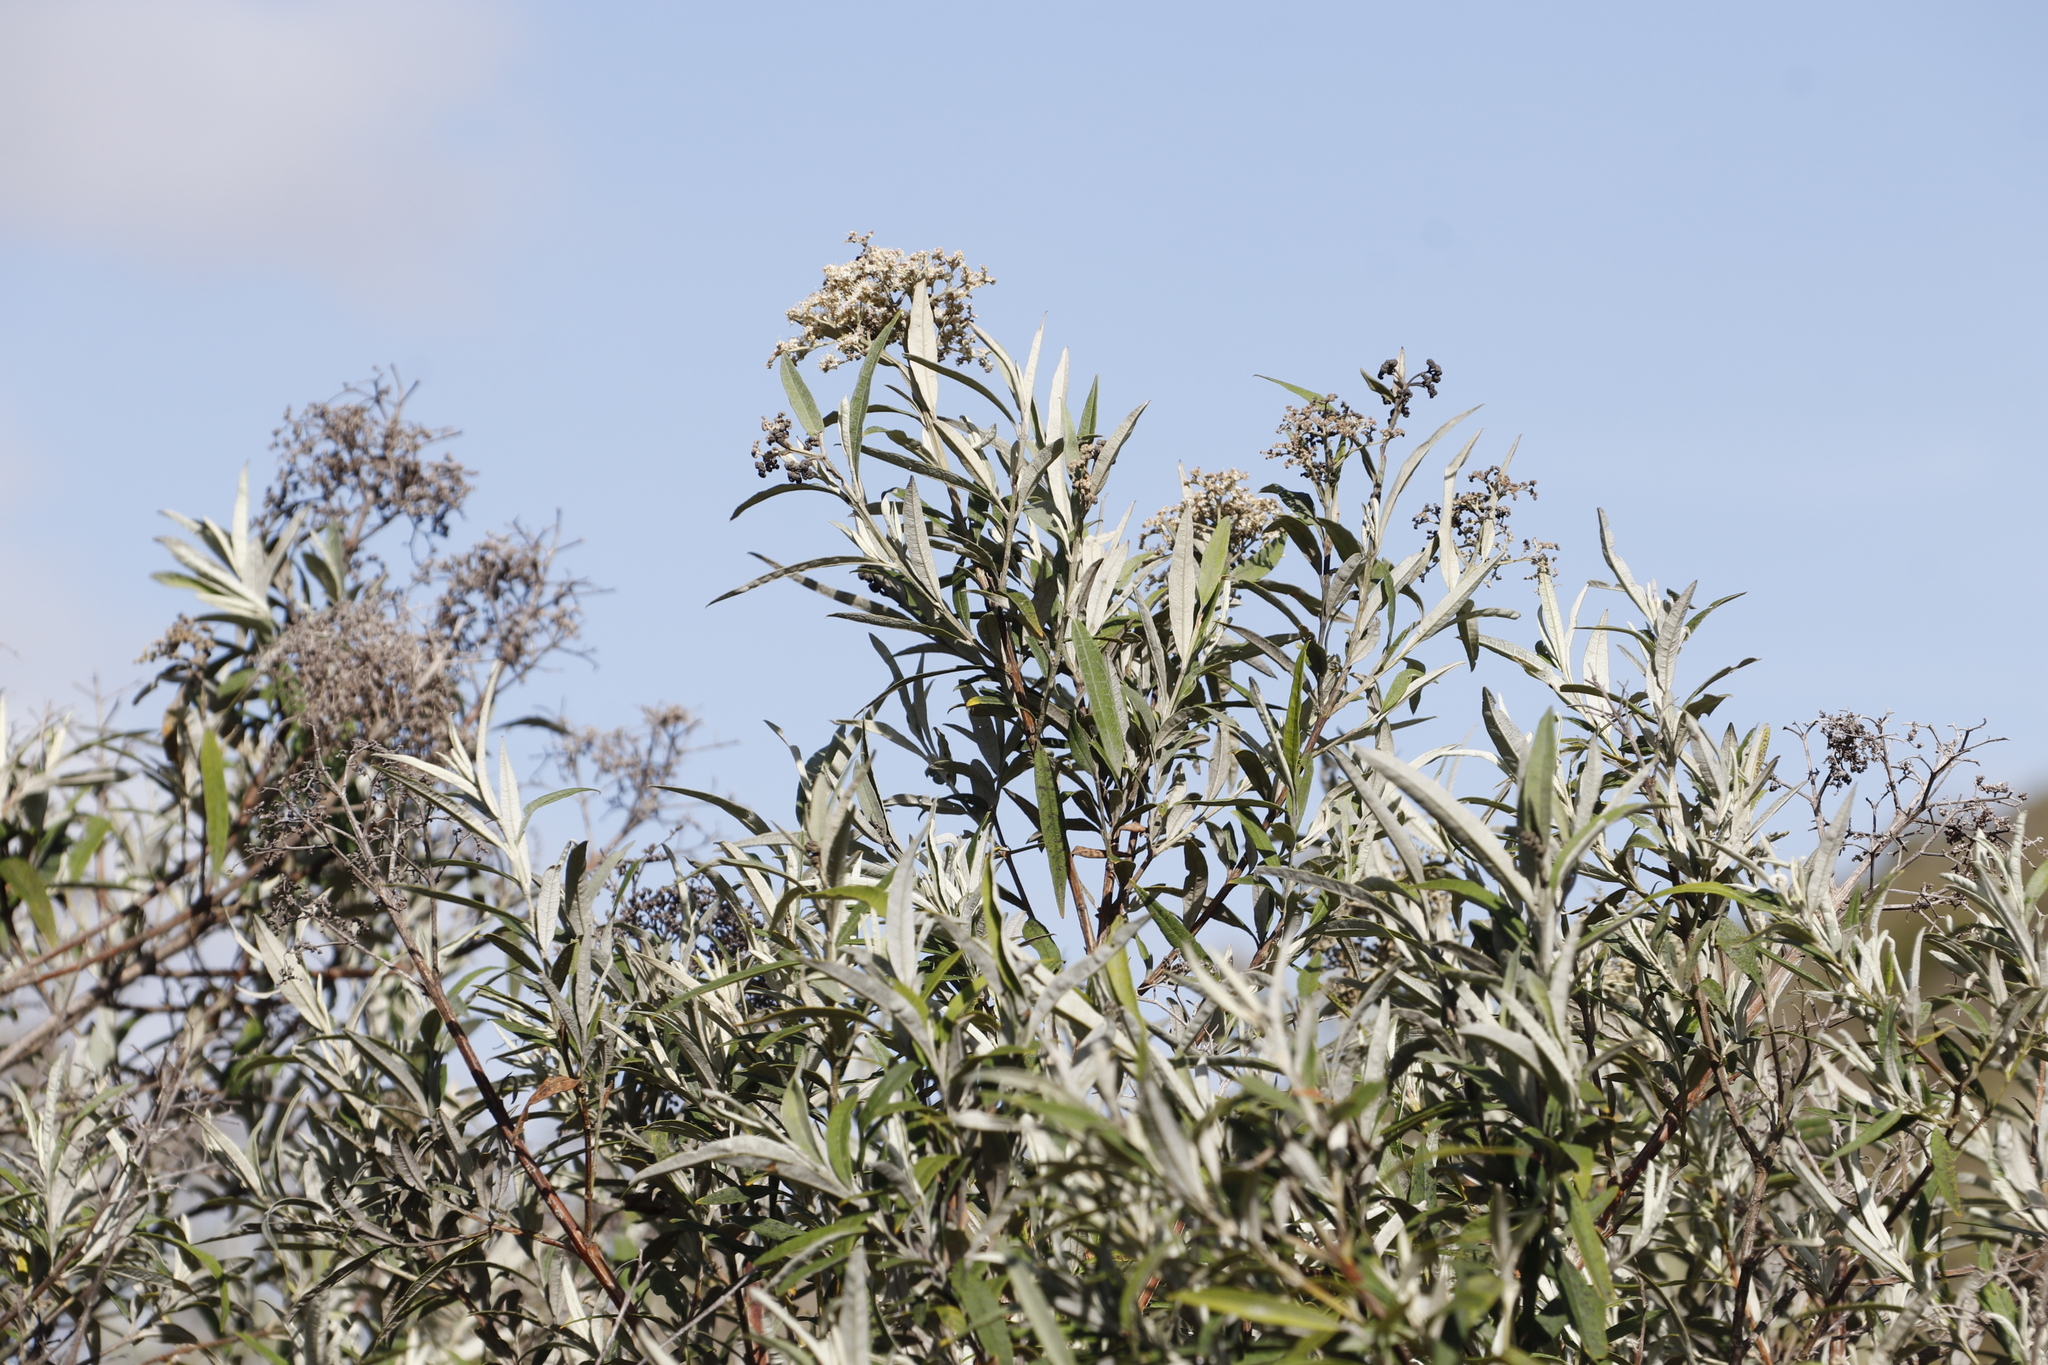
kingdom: Plantae
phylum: Tracheophyta
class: Magnoliopsida
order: Lamiales
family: Scrophulariaceae
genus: Buddleja
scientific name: Buddleja saligna
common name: False olive
